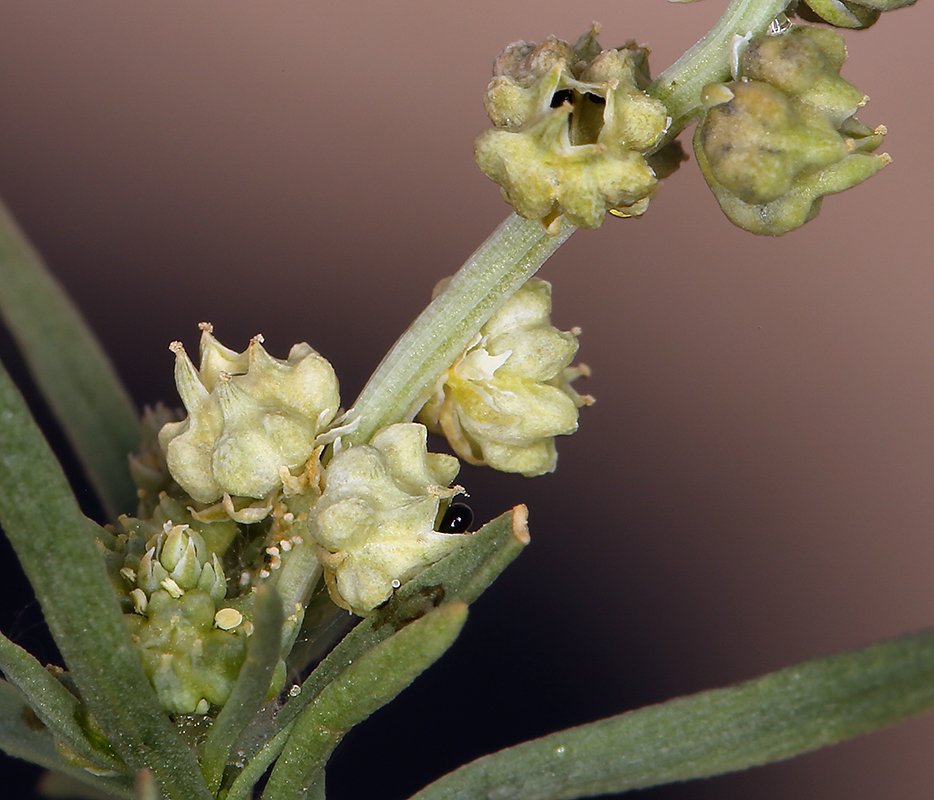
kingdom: Plantae
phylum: Tracheophyta
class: Magnoliopsida
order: Brassicales
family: Resedaceae
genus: Oligomeris
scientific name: Oligomeris linifolia
